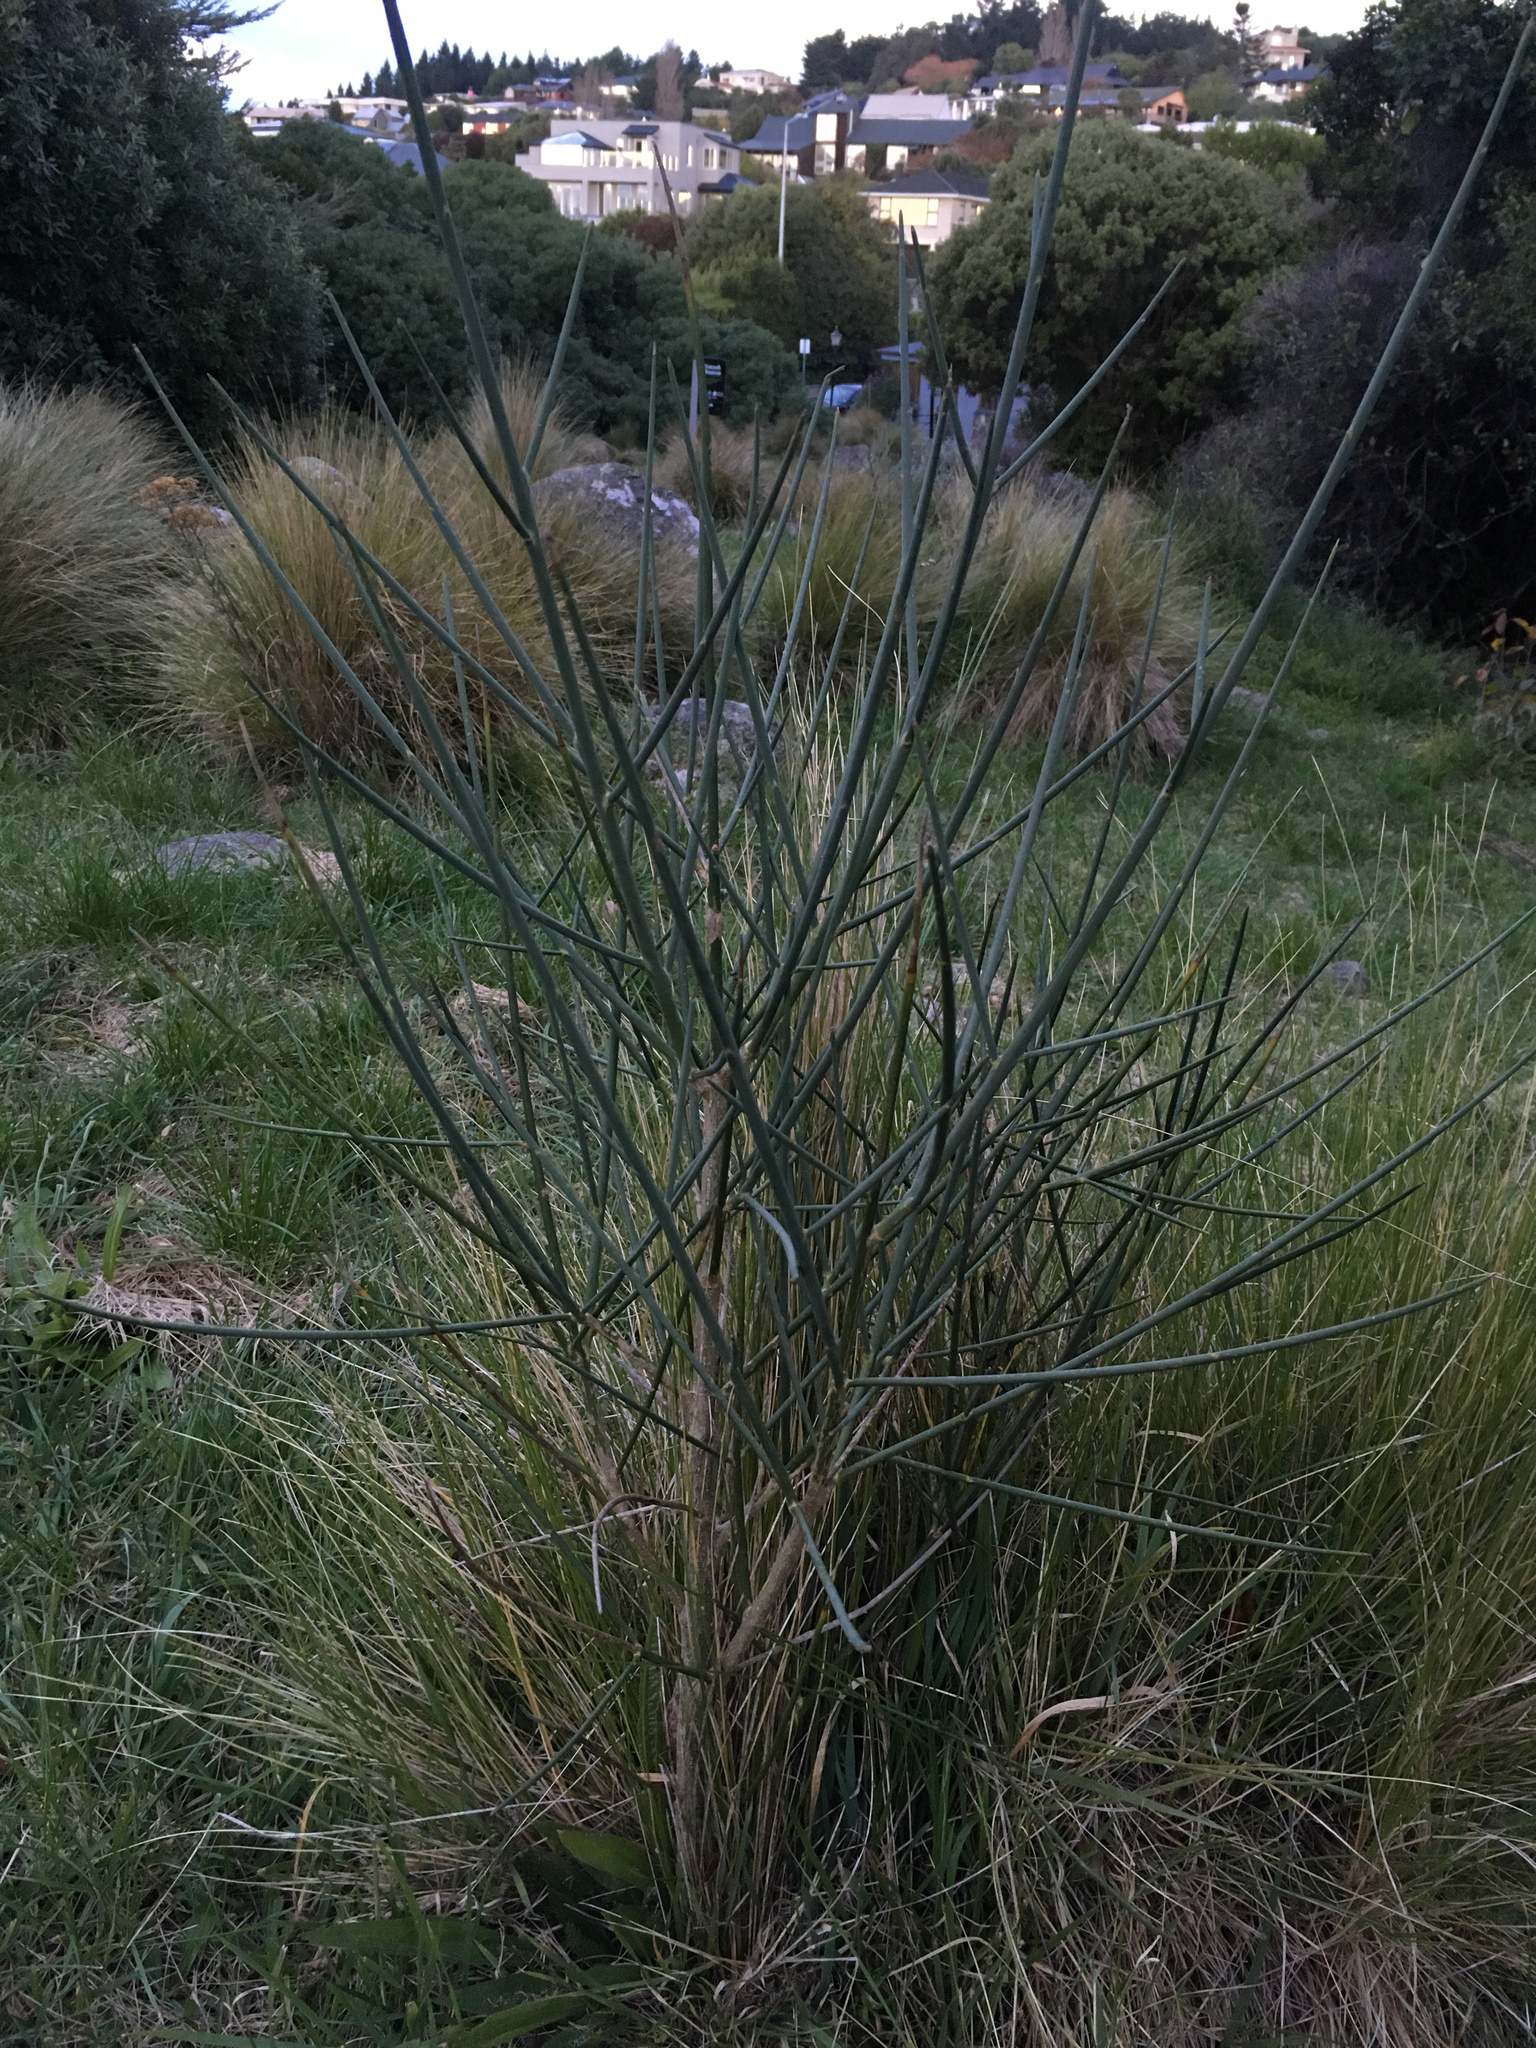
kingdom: Plantae
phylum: Tracheophyta
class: Magnoliopsida
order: Fabales
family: Fabaceae
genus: Spartium
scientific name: Spartium junceum
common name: Spanish broom
